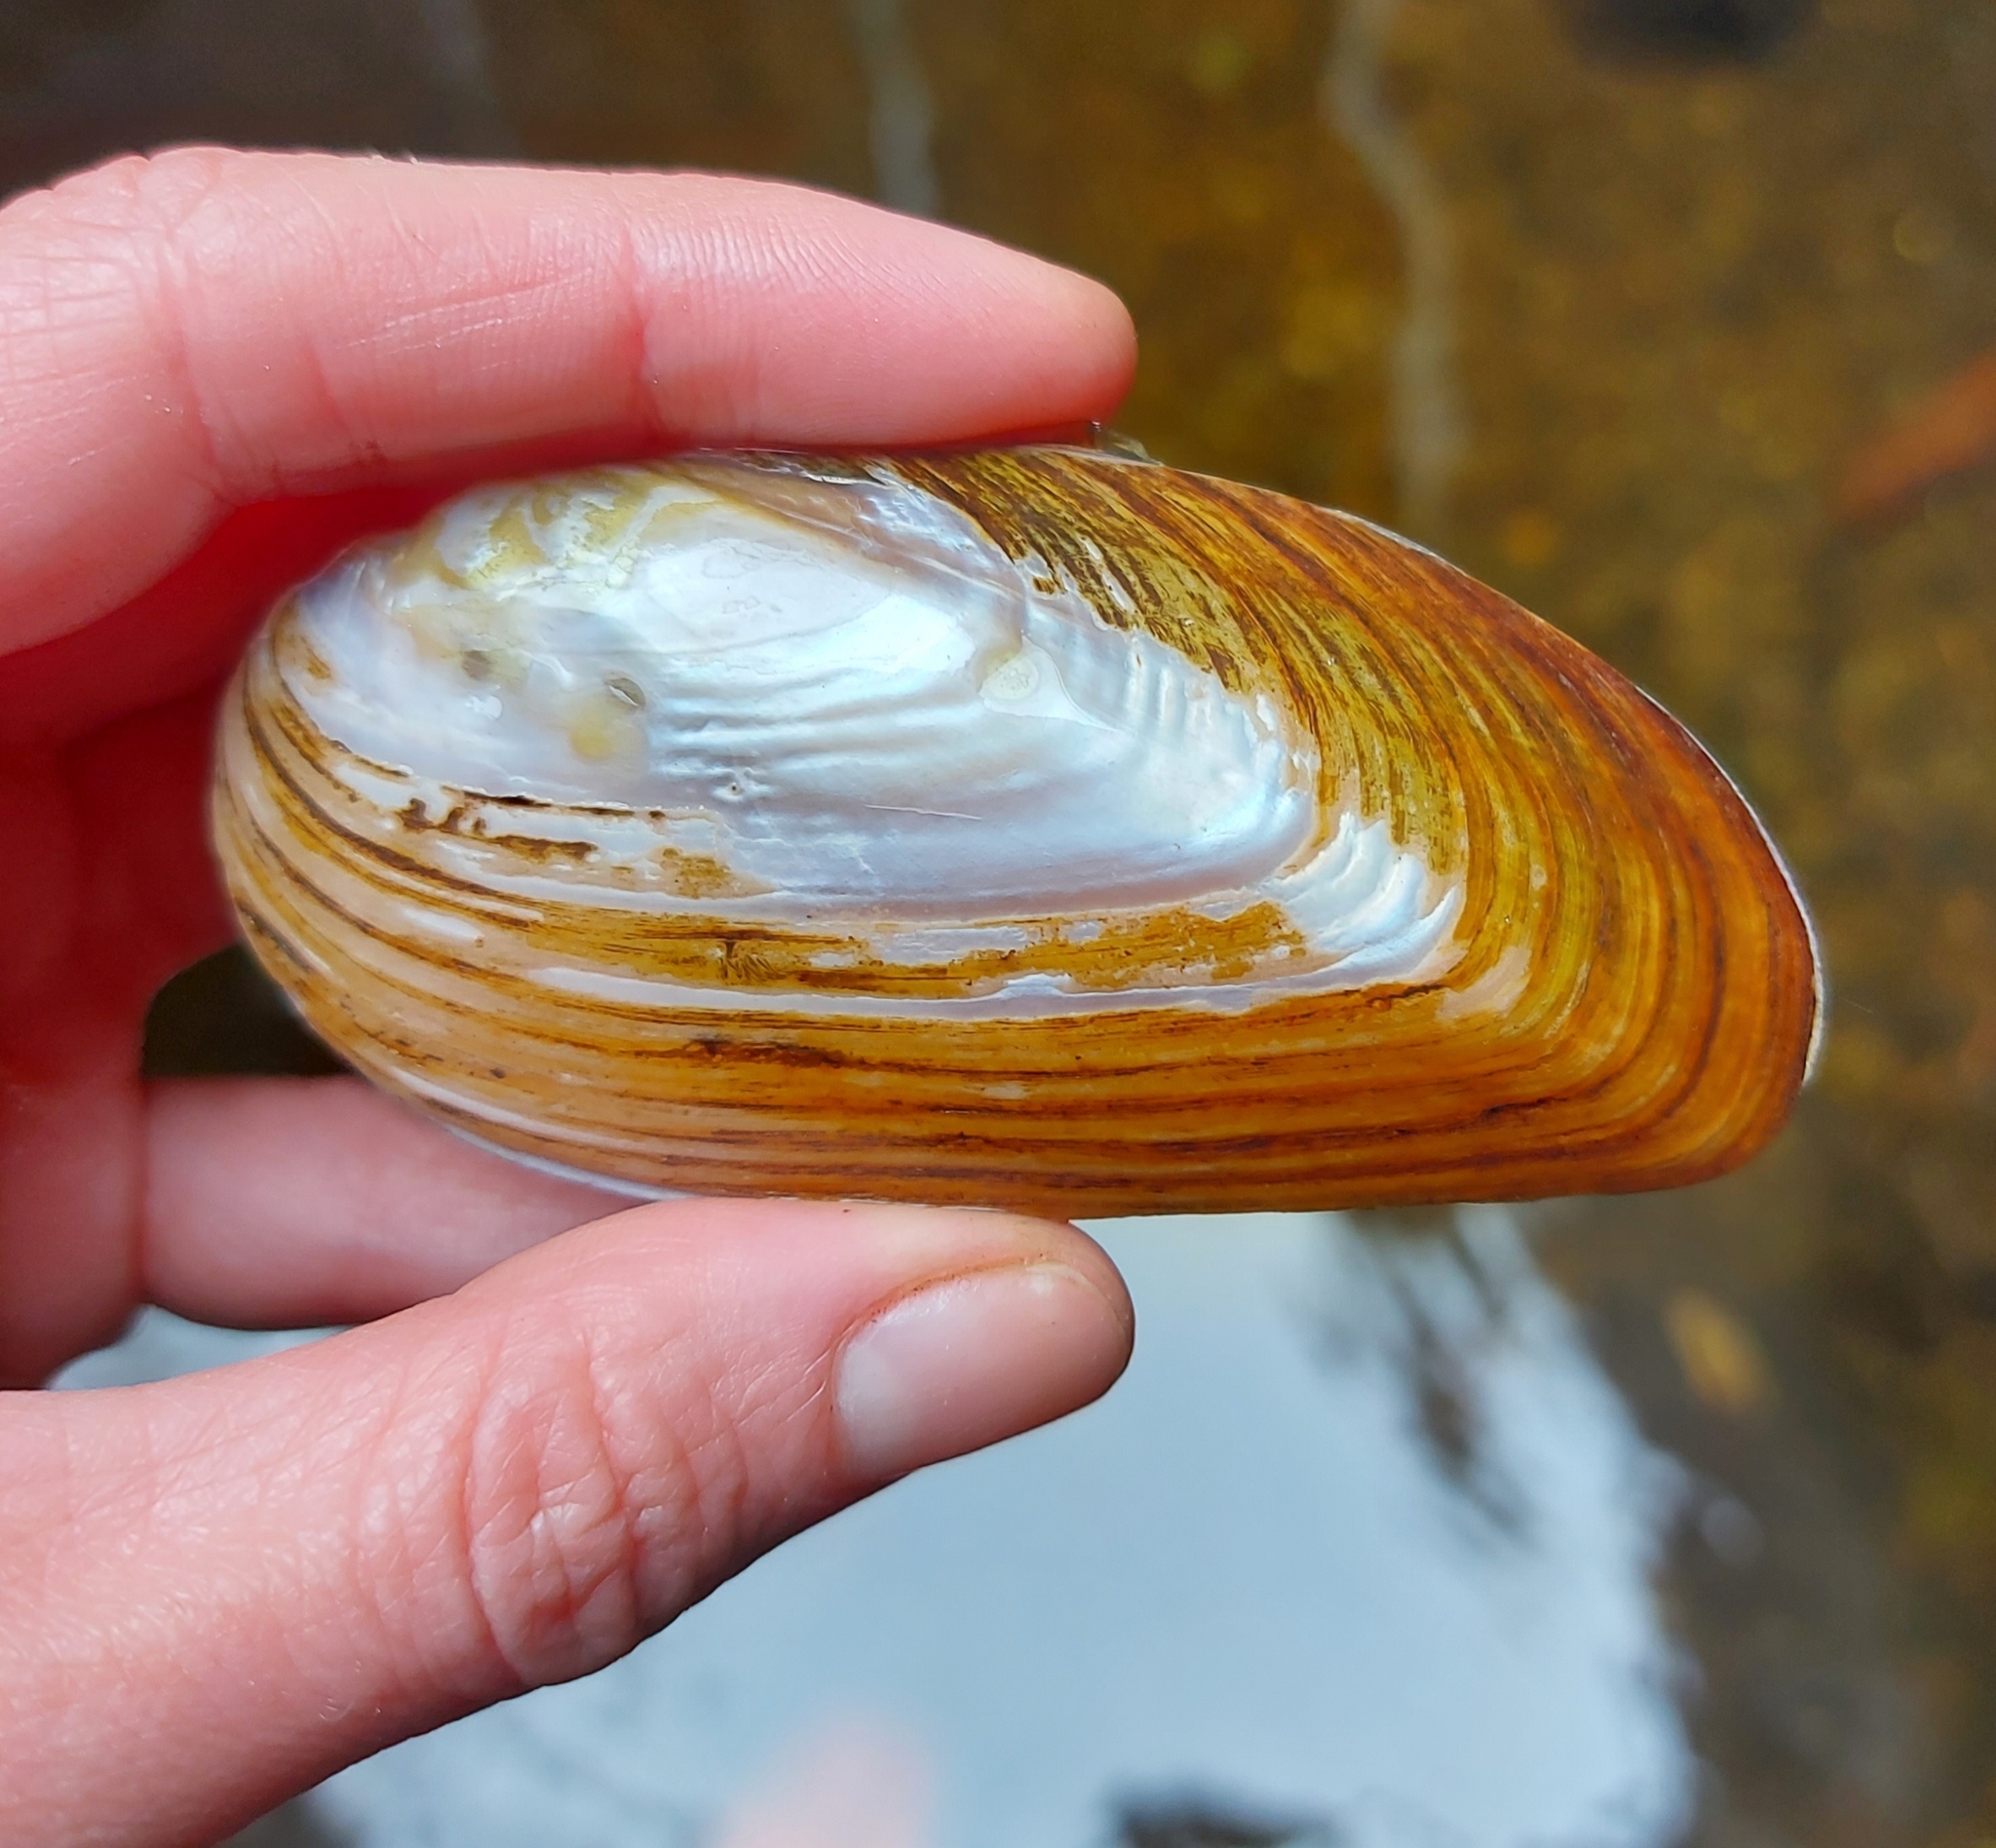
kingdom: Animalia
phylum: Mollusca
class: Bivalvia
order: Unionida
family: Unionidae
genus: Elliptio
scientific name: Elliptio complanata
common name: Eastern elliptio
